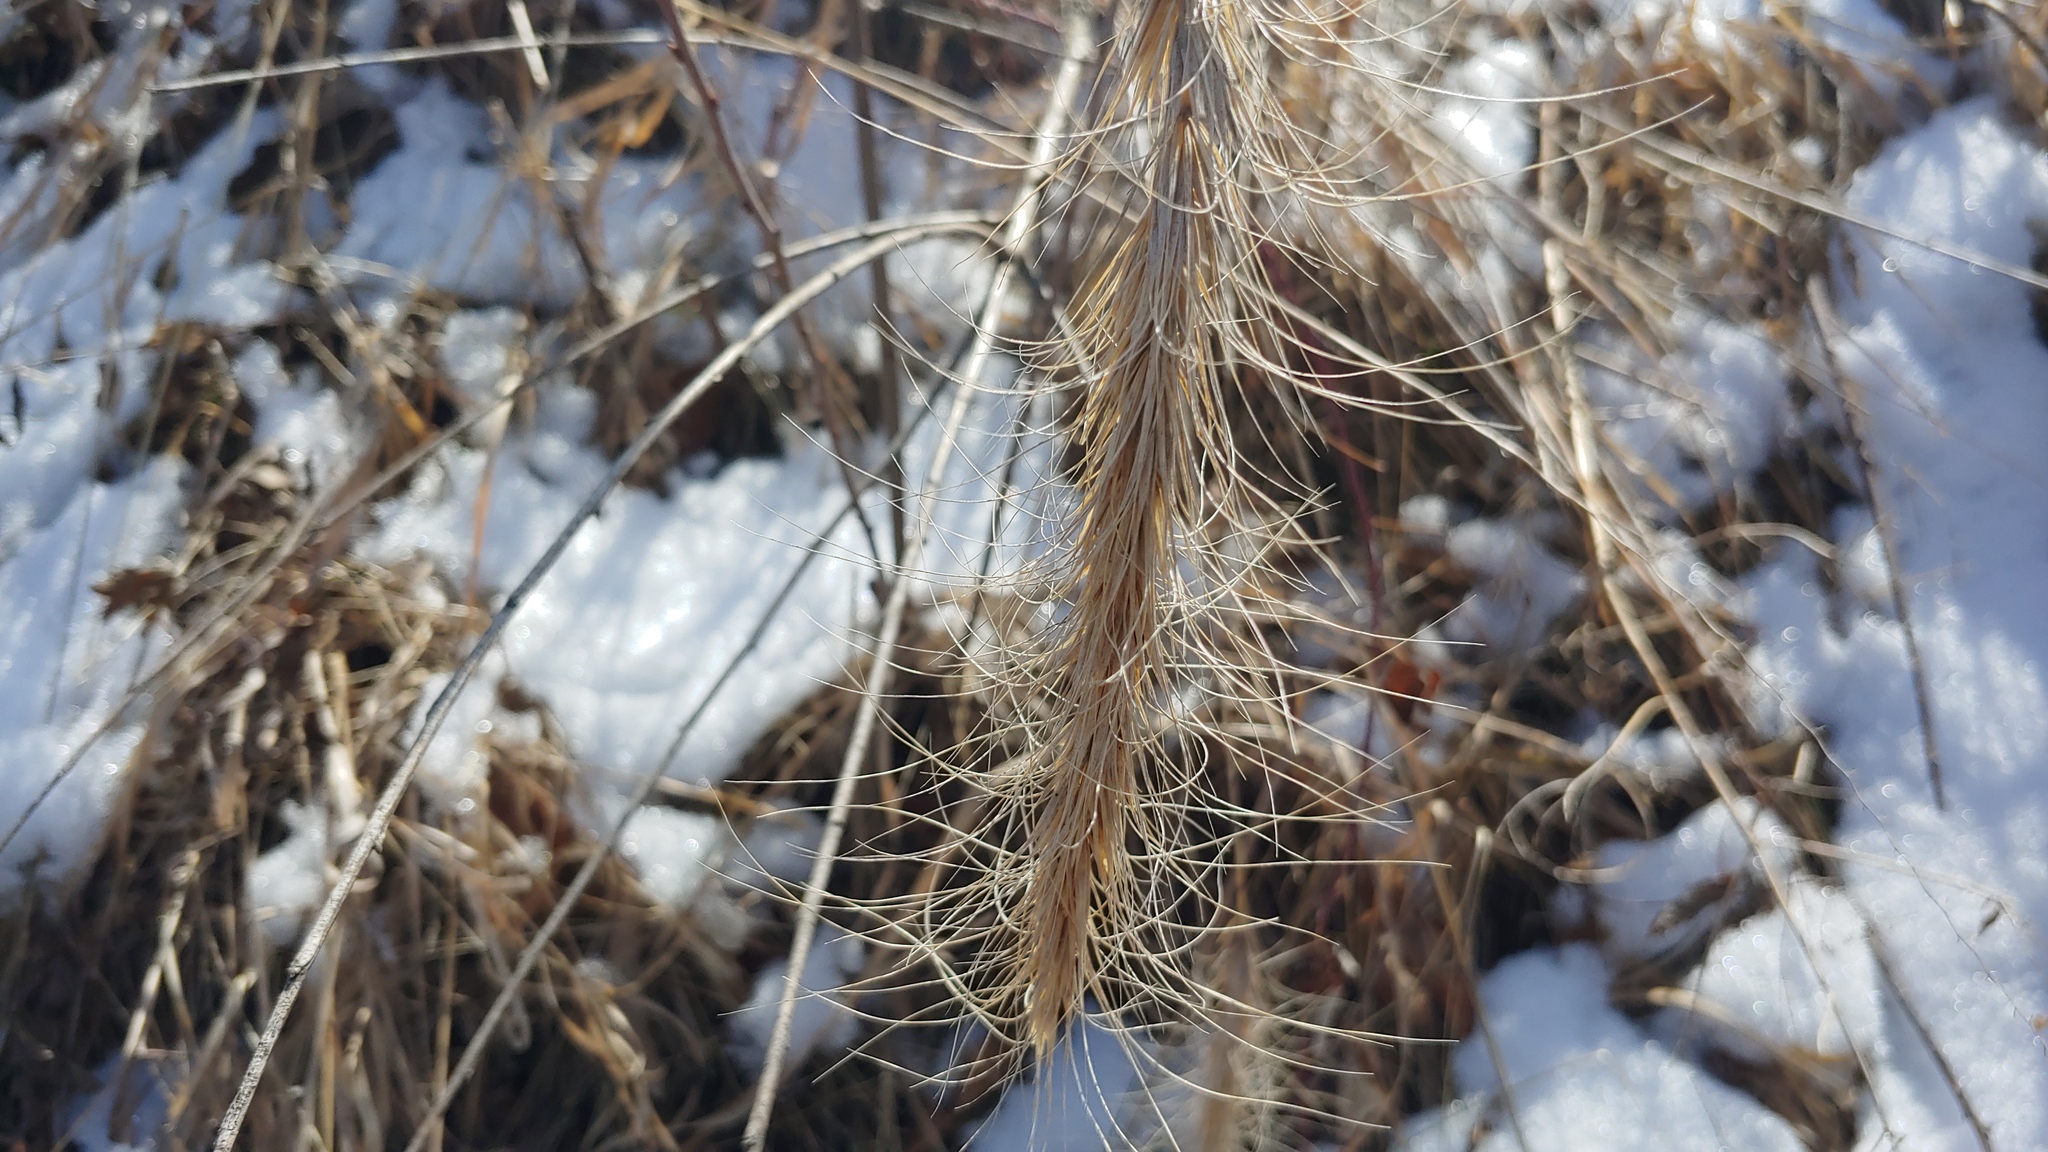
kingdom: Plantae
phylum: Tracheophyta
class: Liliopsida
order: Poales
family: Poaceae
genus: Elymus
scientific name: Elymus canadensis
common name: Canada wild rye
